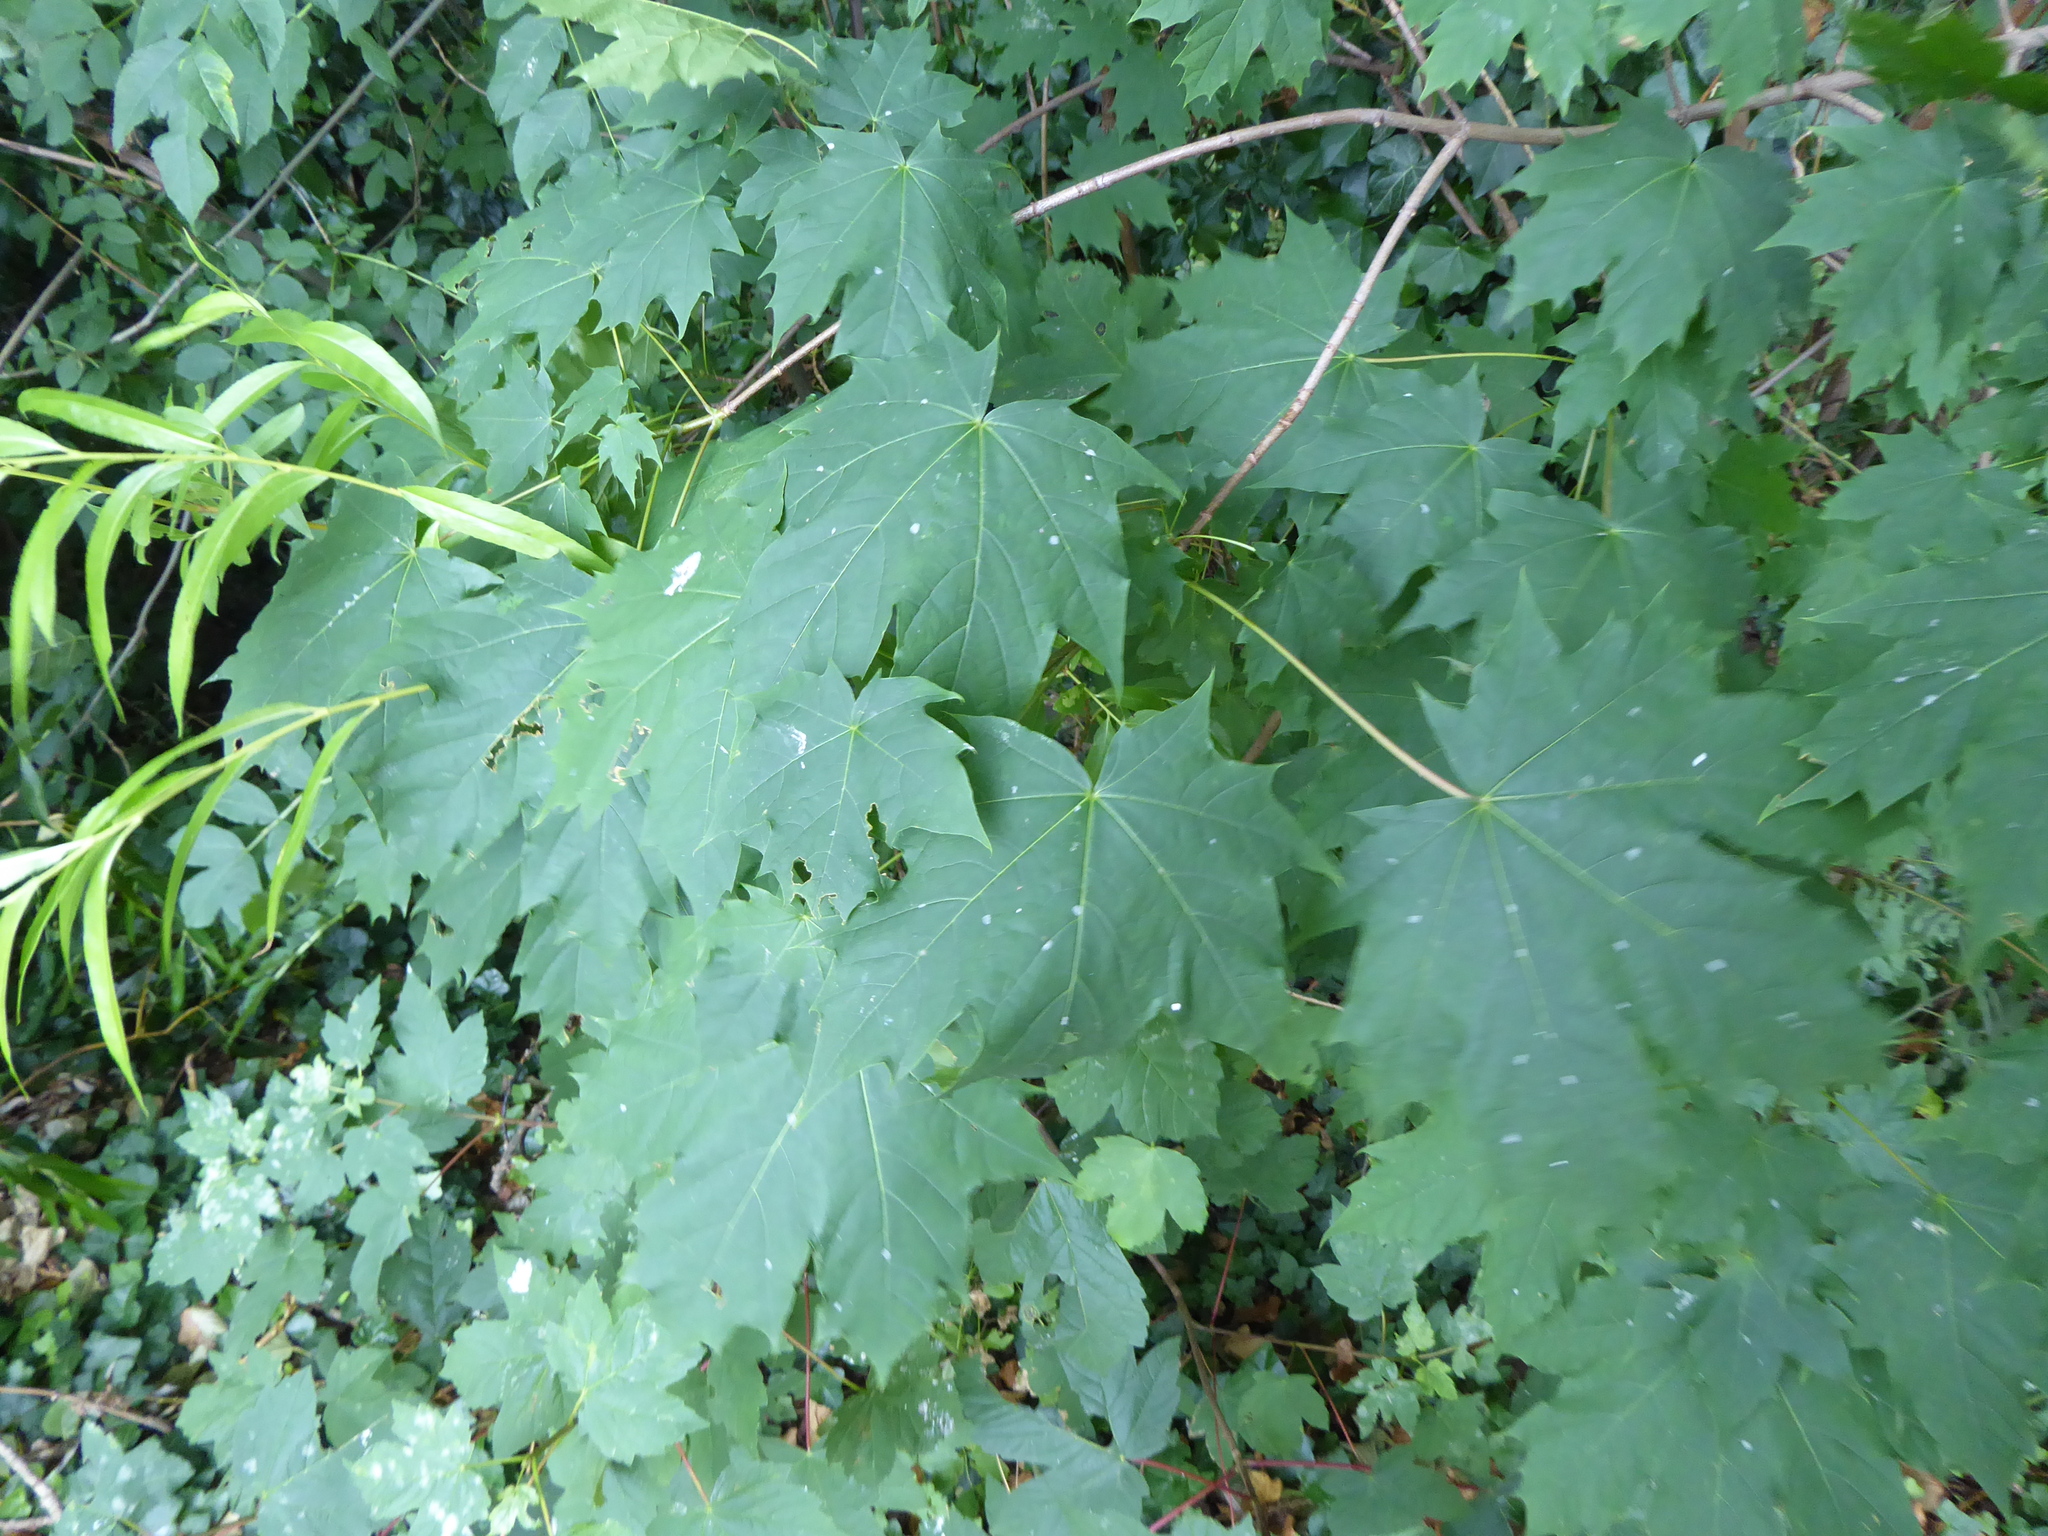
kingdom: Plantae
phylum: Tracheophyta
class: Magnoliopsida
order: Sapindales
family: Sapindaceae
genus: Acer
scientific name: Acer platanoides
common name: Norway maple
